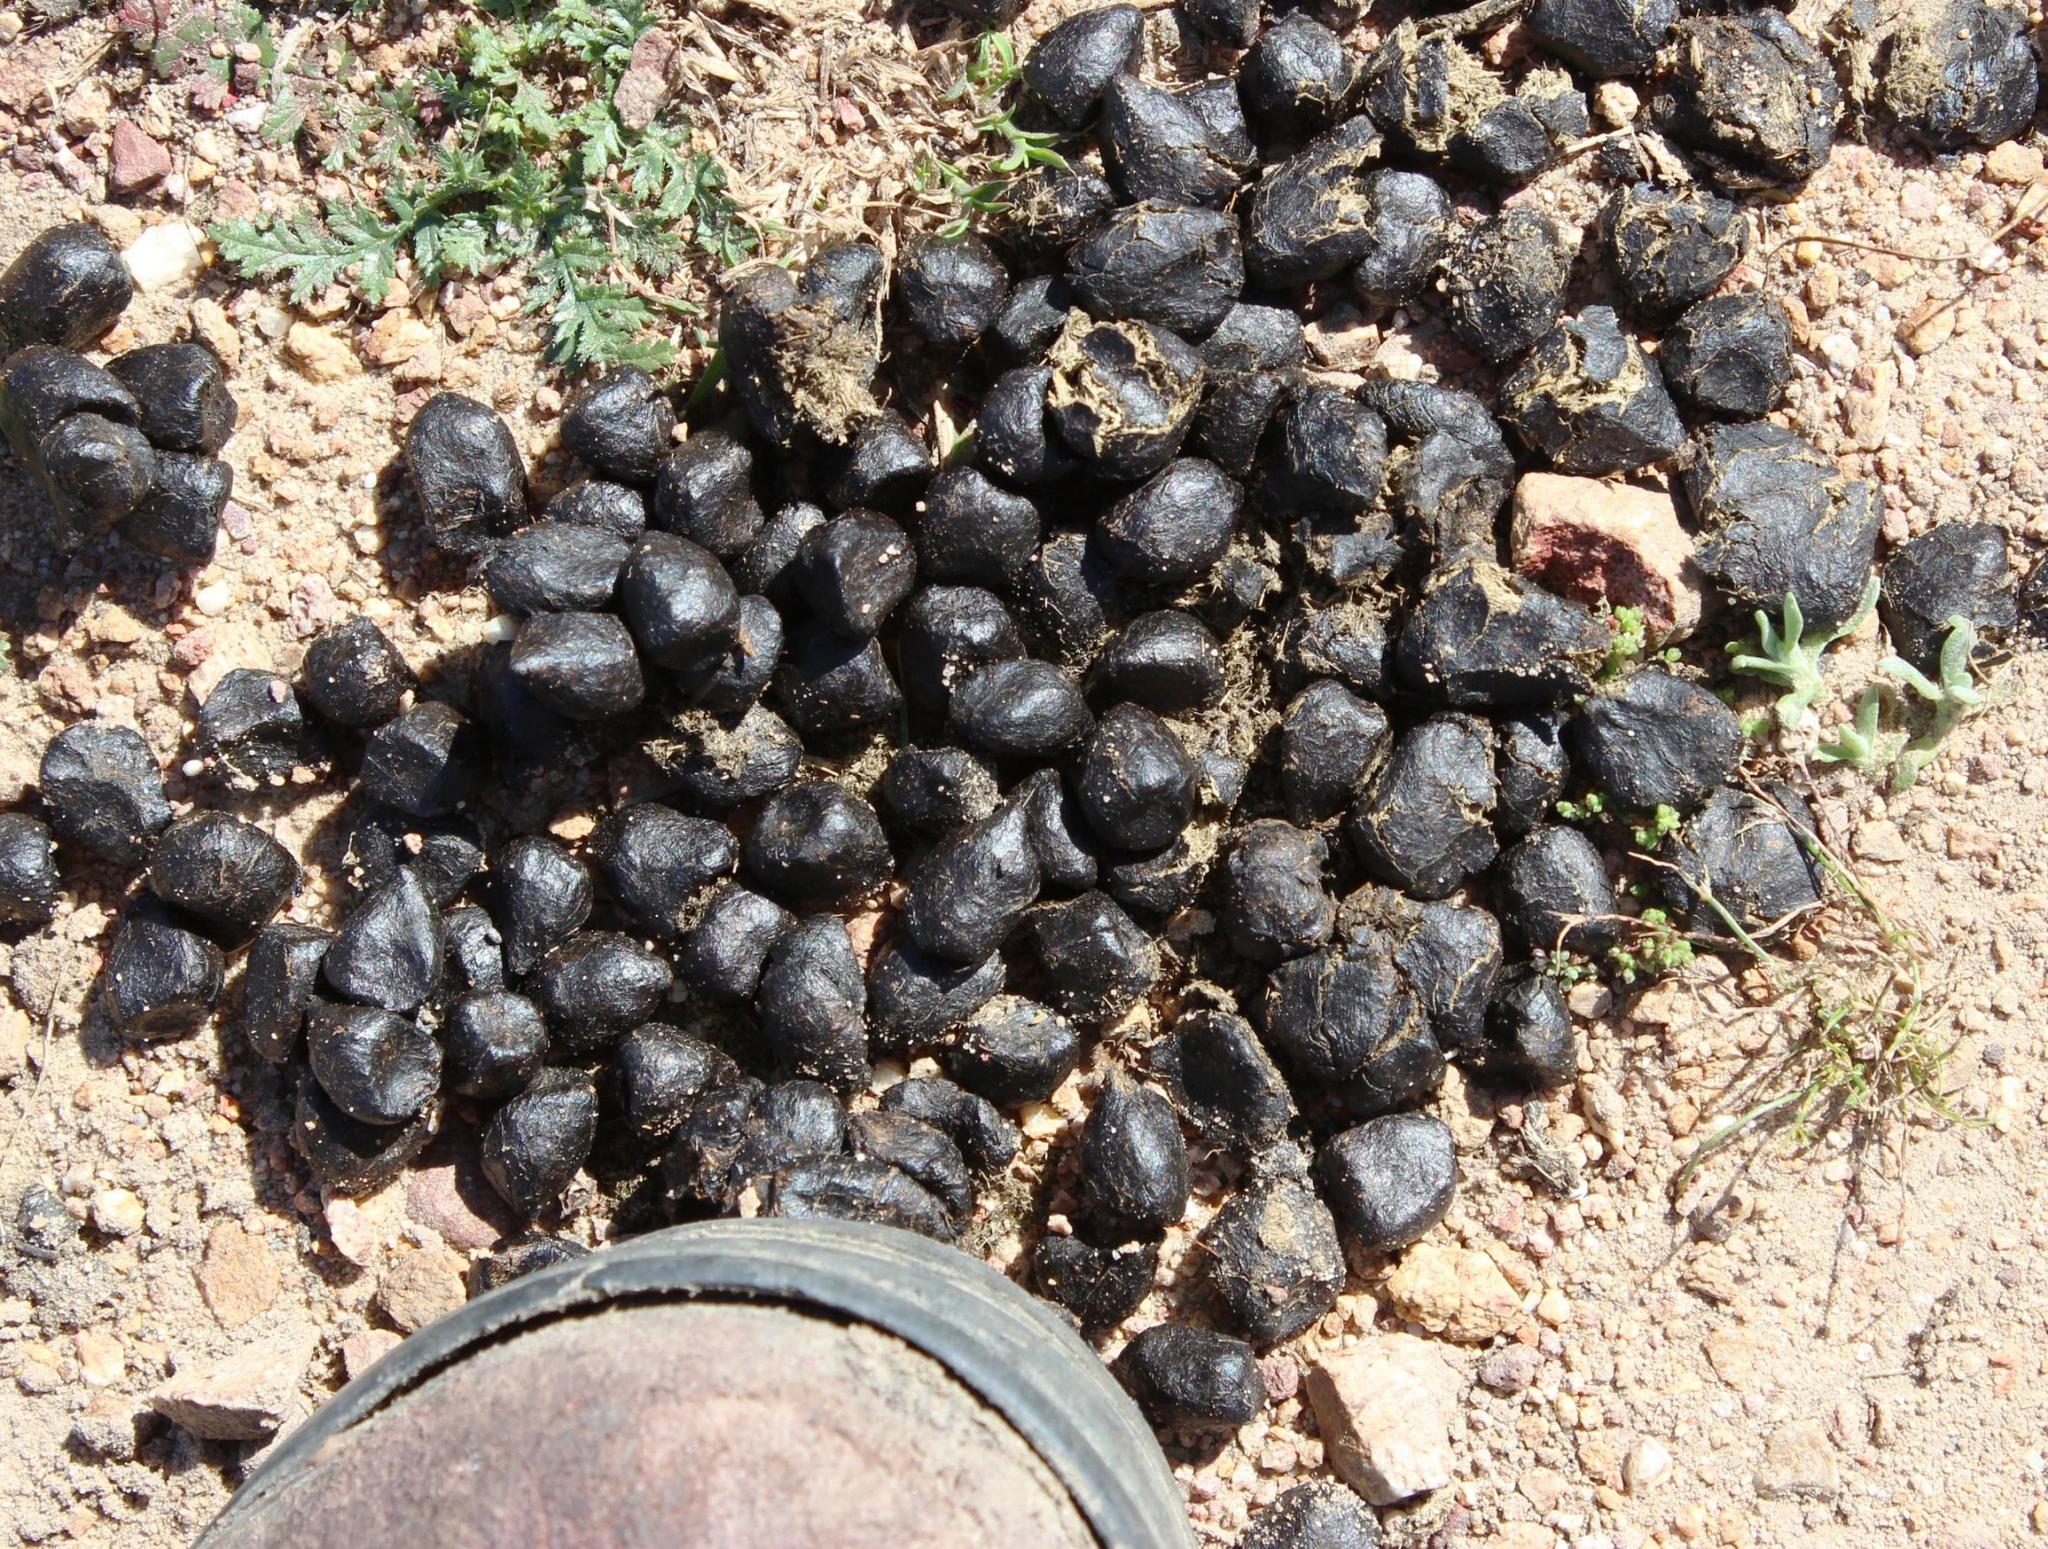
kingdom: Animalia
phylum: Chordata
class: Mammalia
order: Artiodactyla
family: Bovidae
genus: Damaliscus
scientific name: Damaliscus pygargus
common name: Bontebok
